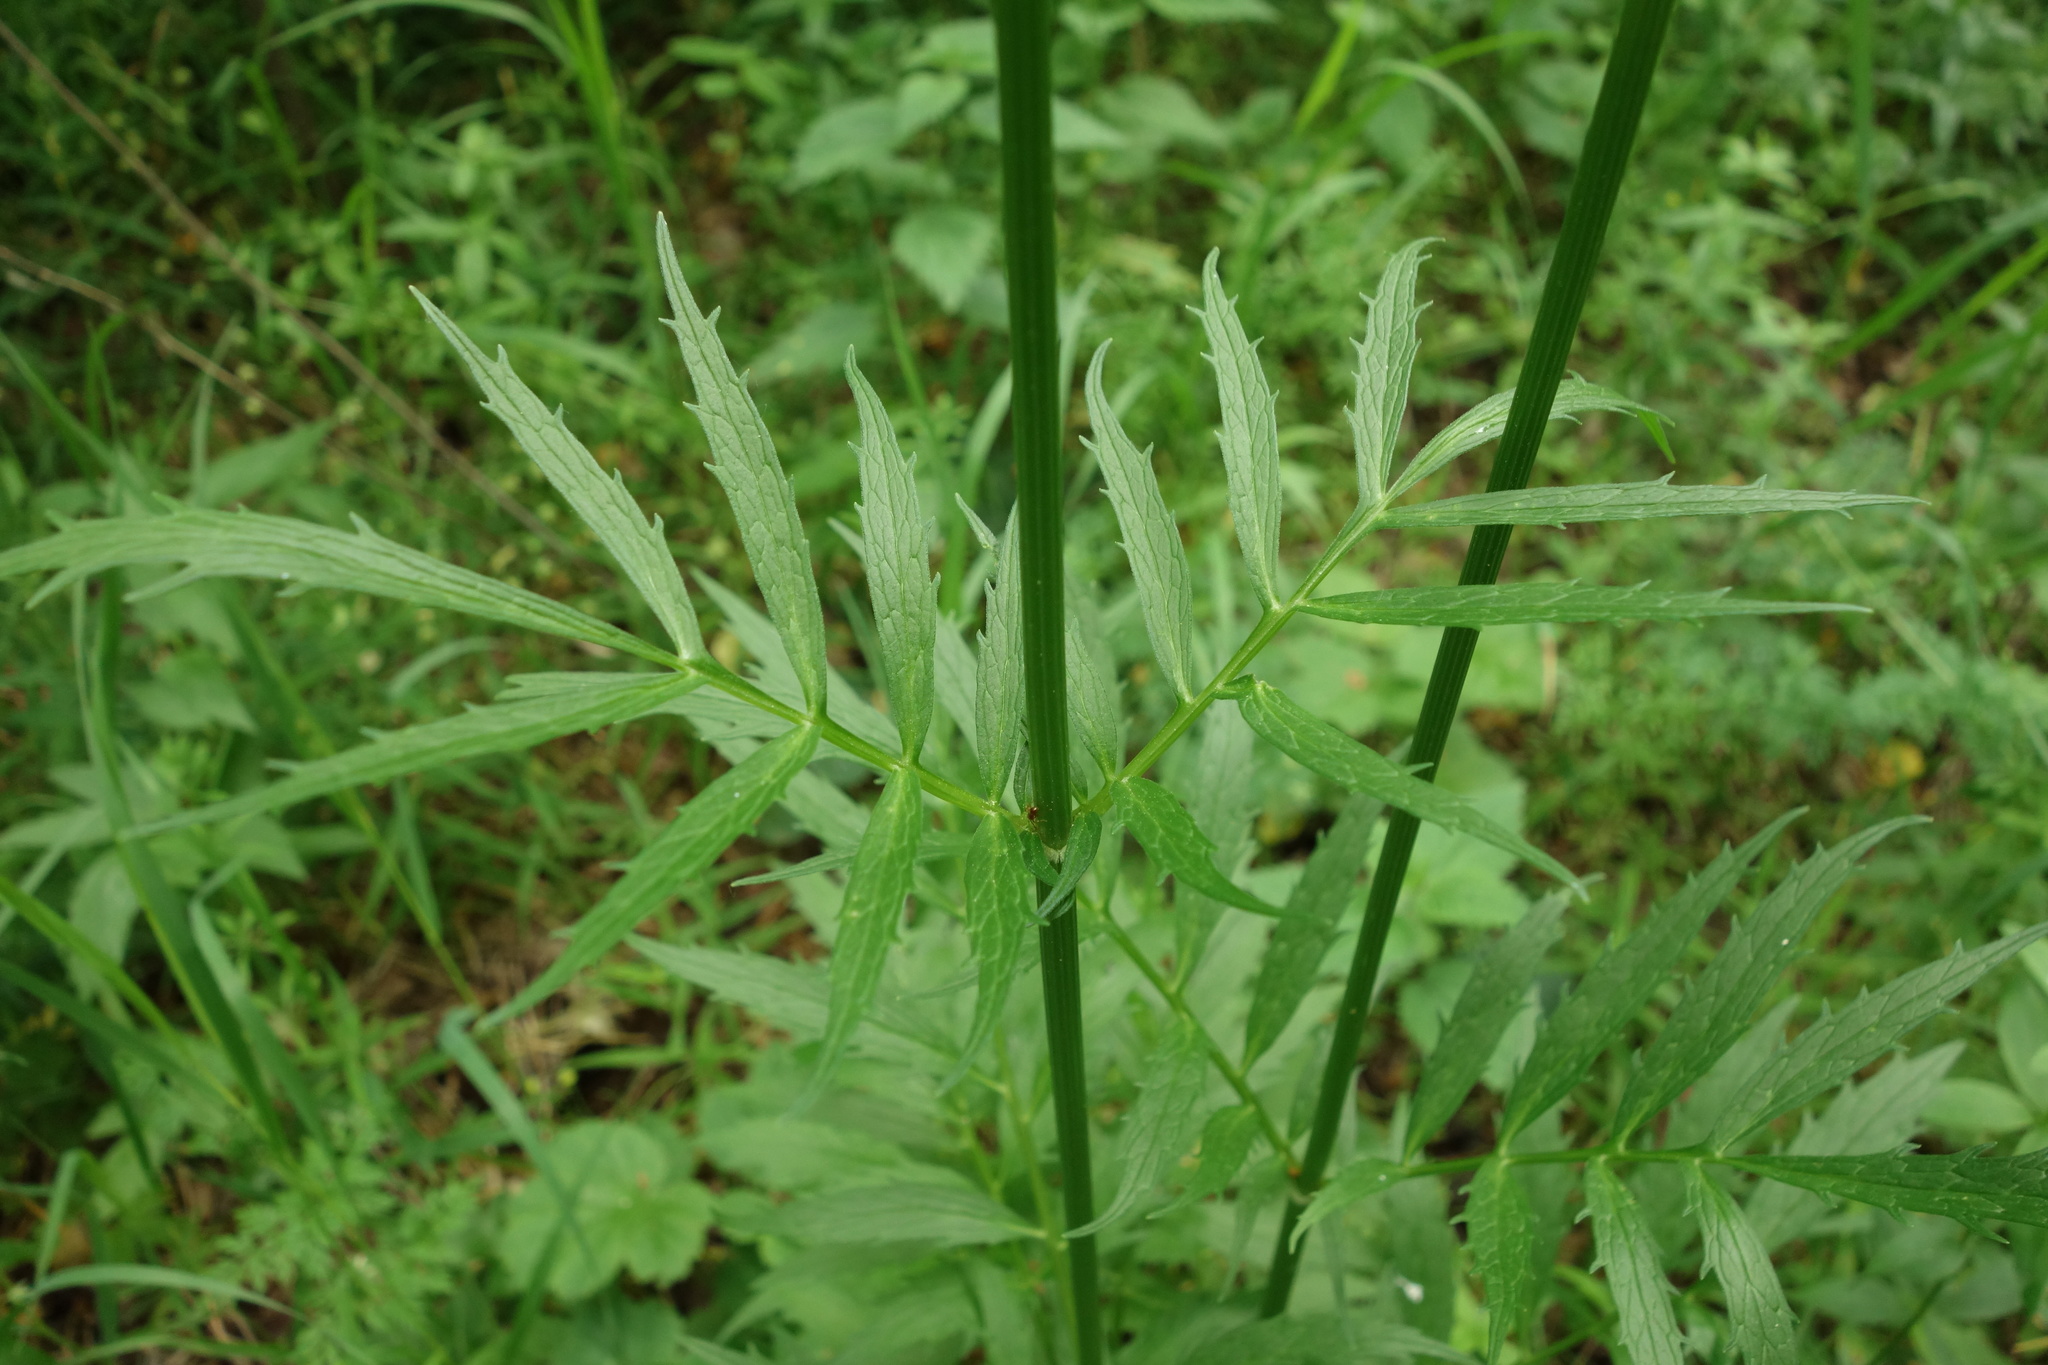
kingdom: Plantae
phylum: Tracheophyta
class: Magnoliopsida
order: Dipsacales
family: Caprifoliaceae
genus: Valeriana
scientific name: Valeriana officinalis
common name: Common valerian
